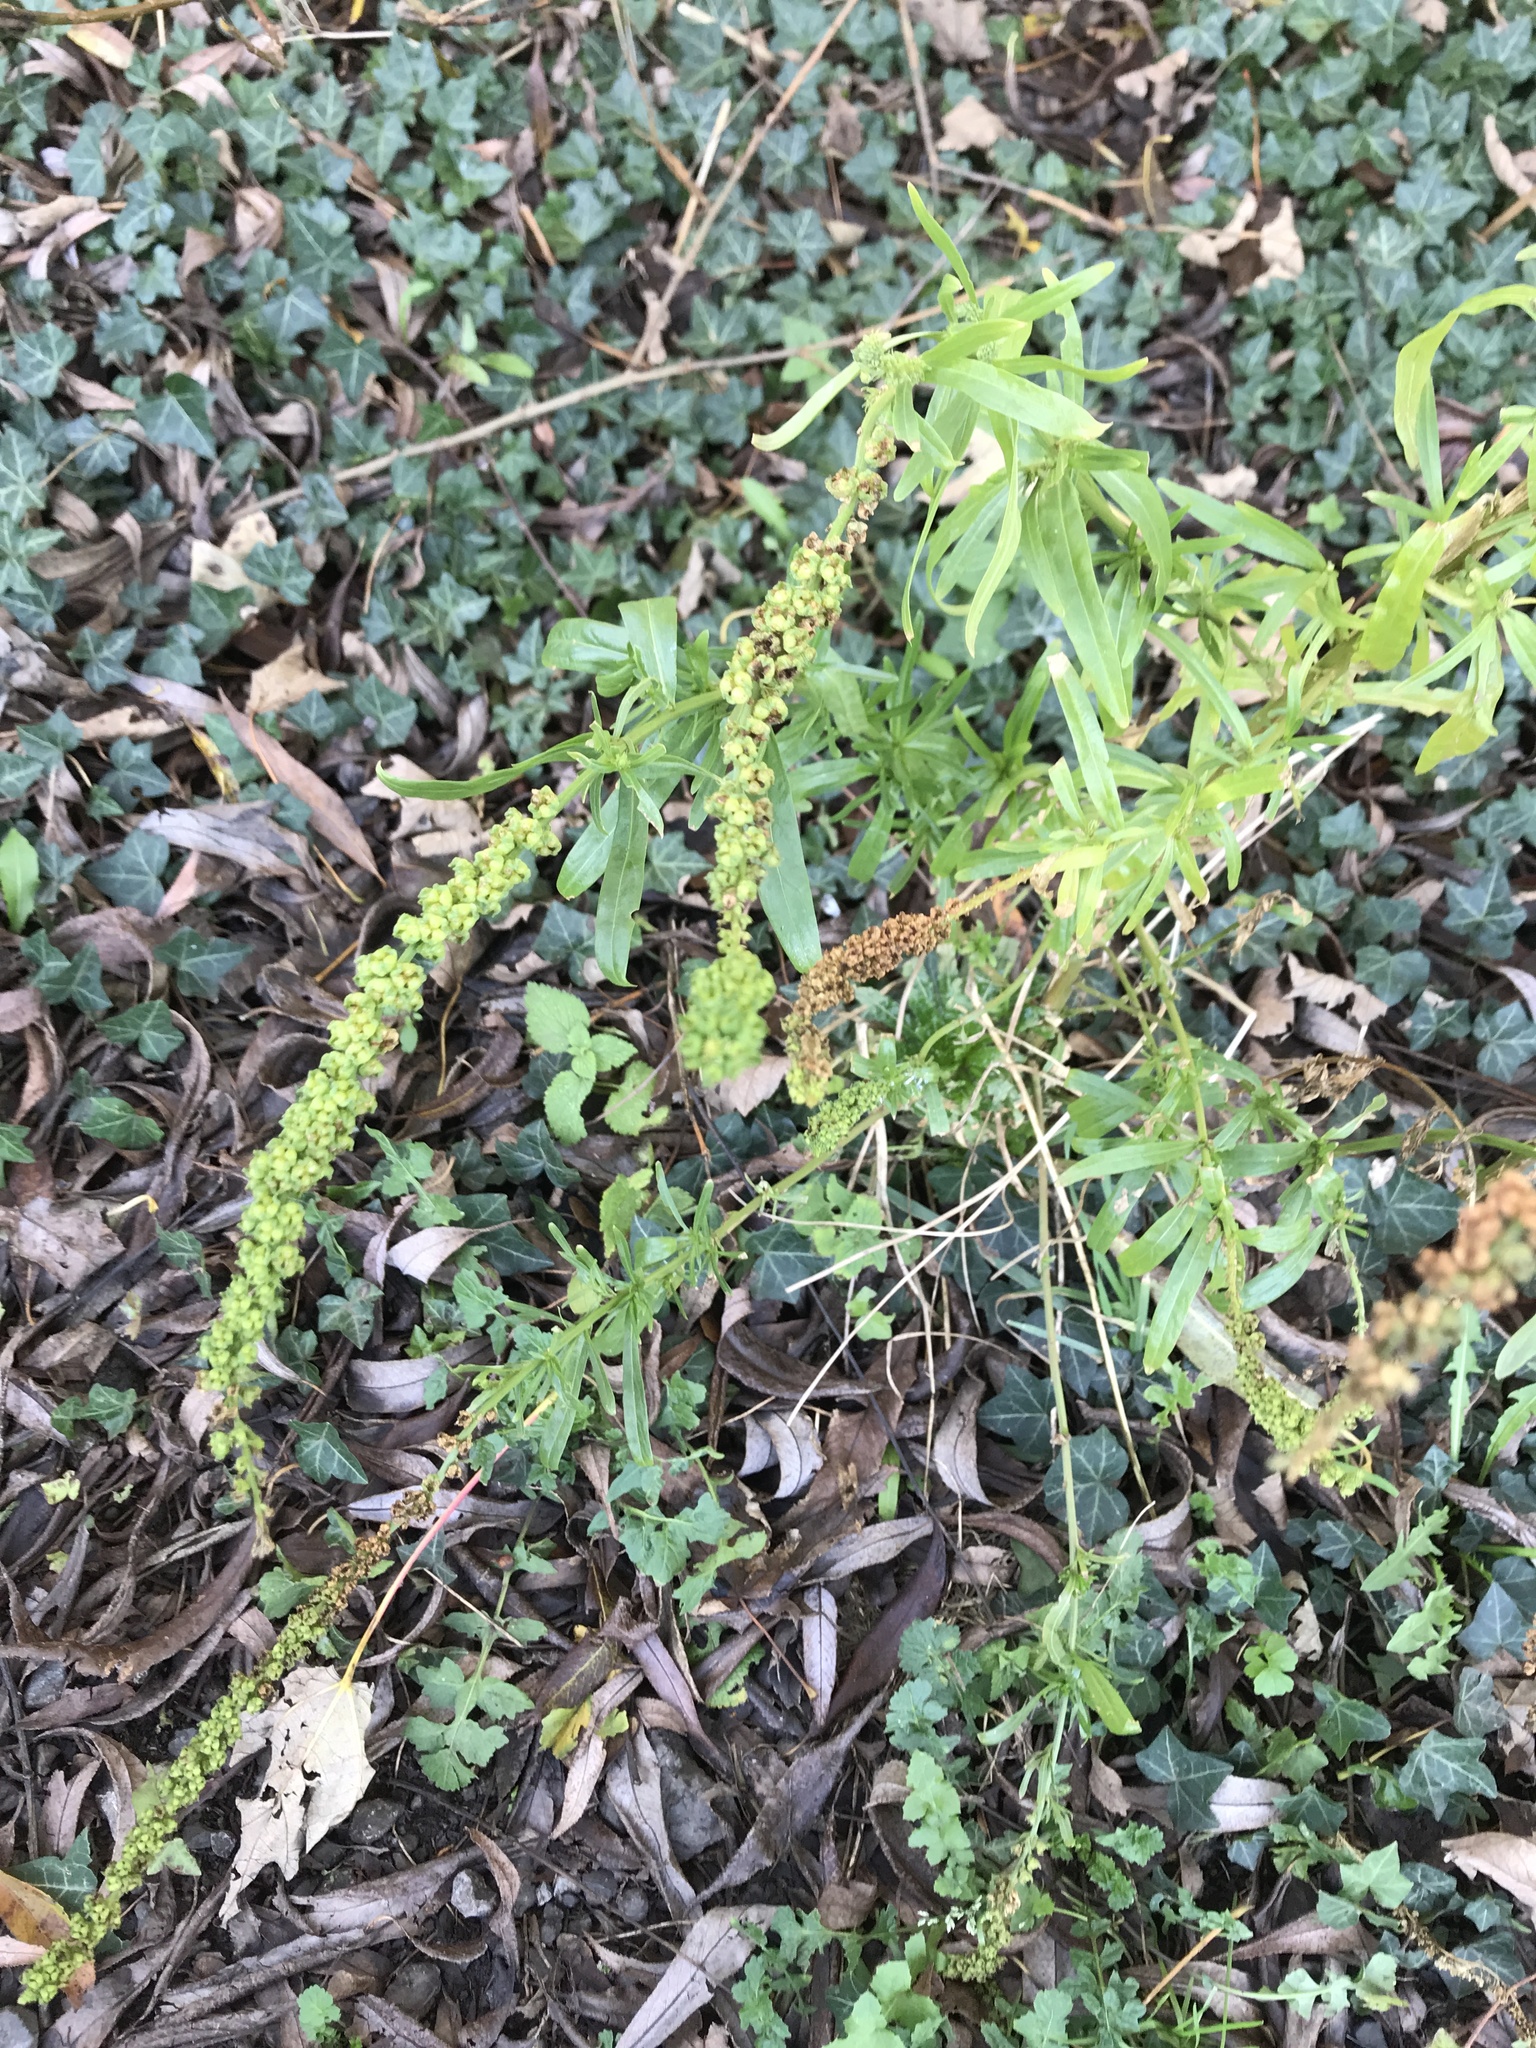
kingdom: Plantae
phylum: Tracheophyta
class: Magnoliopsida
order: Brassicales
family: Resedaceae
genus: Reseda
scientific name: Reseda luteola
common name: Weld
